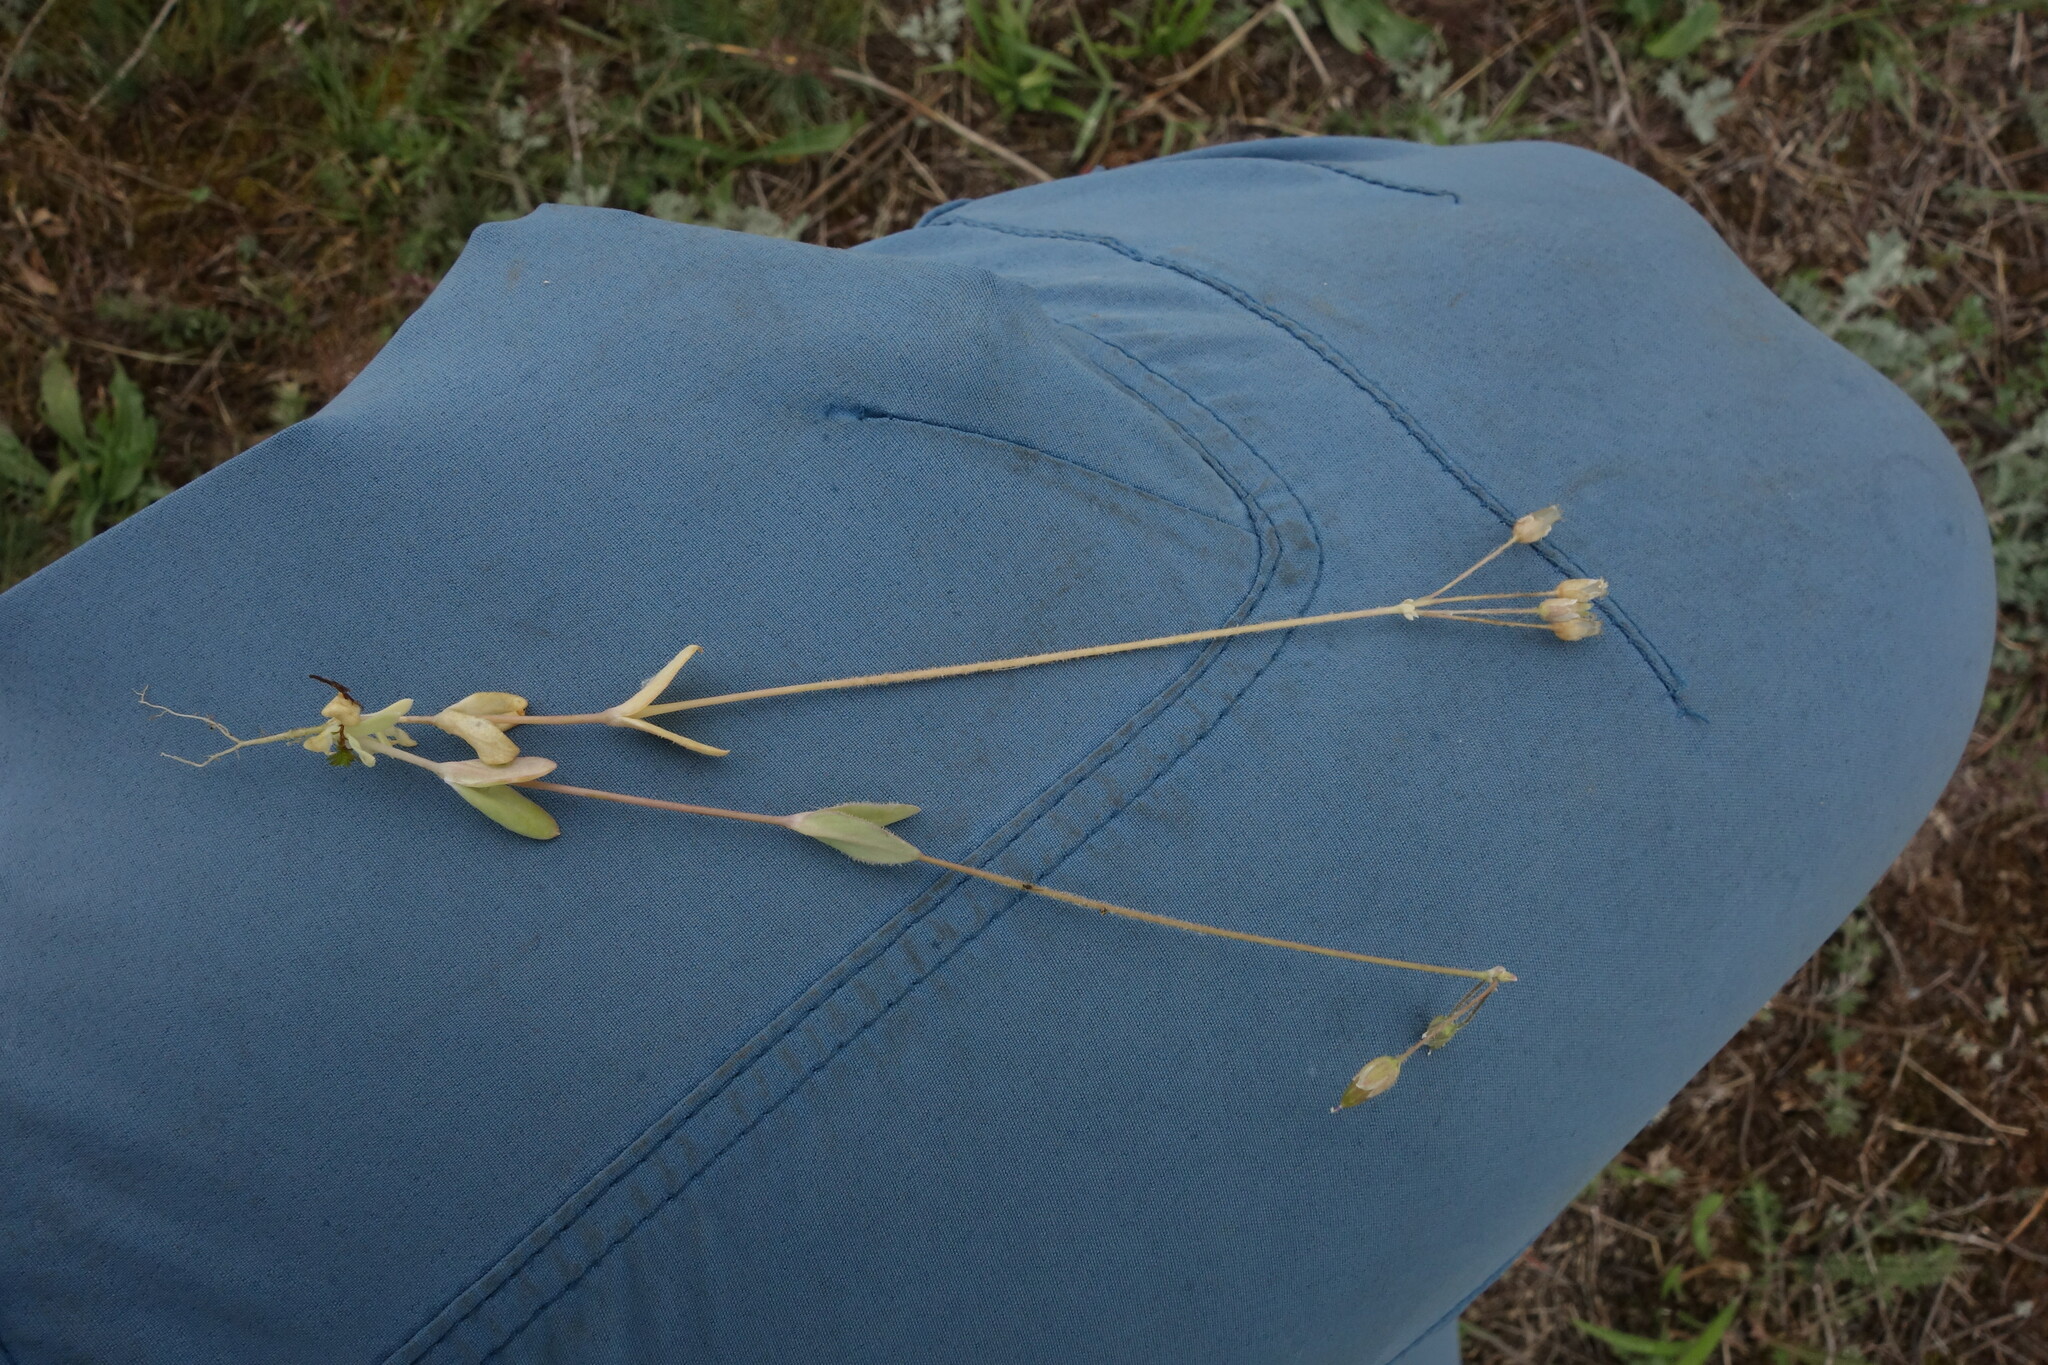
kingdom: Plantae
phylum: Tracheophyta
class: Magnoliopsida
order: Caryophyllales
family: Caryophyllaceae
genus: Holosteum
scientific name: Holosteum umbellatum
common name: Jagged chickweed
